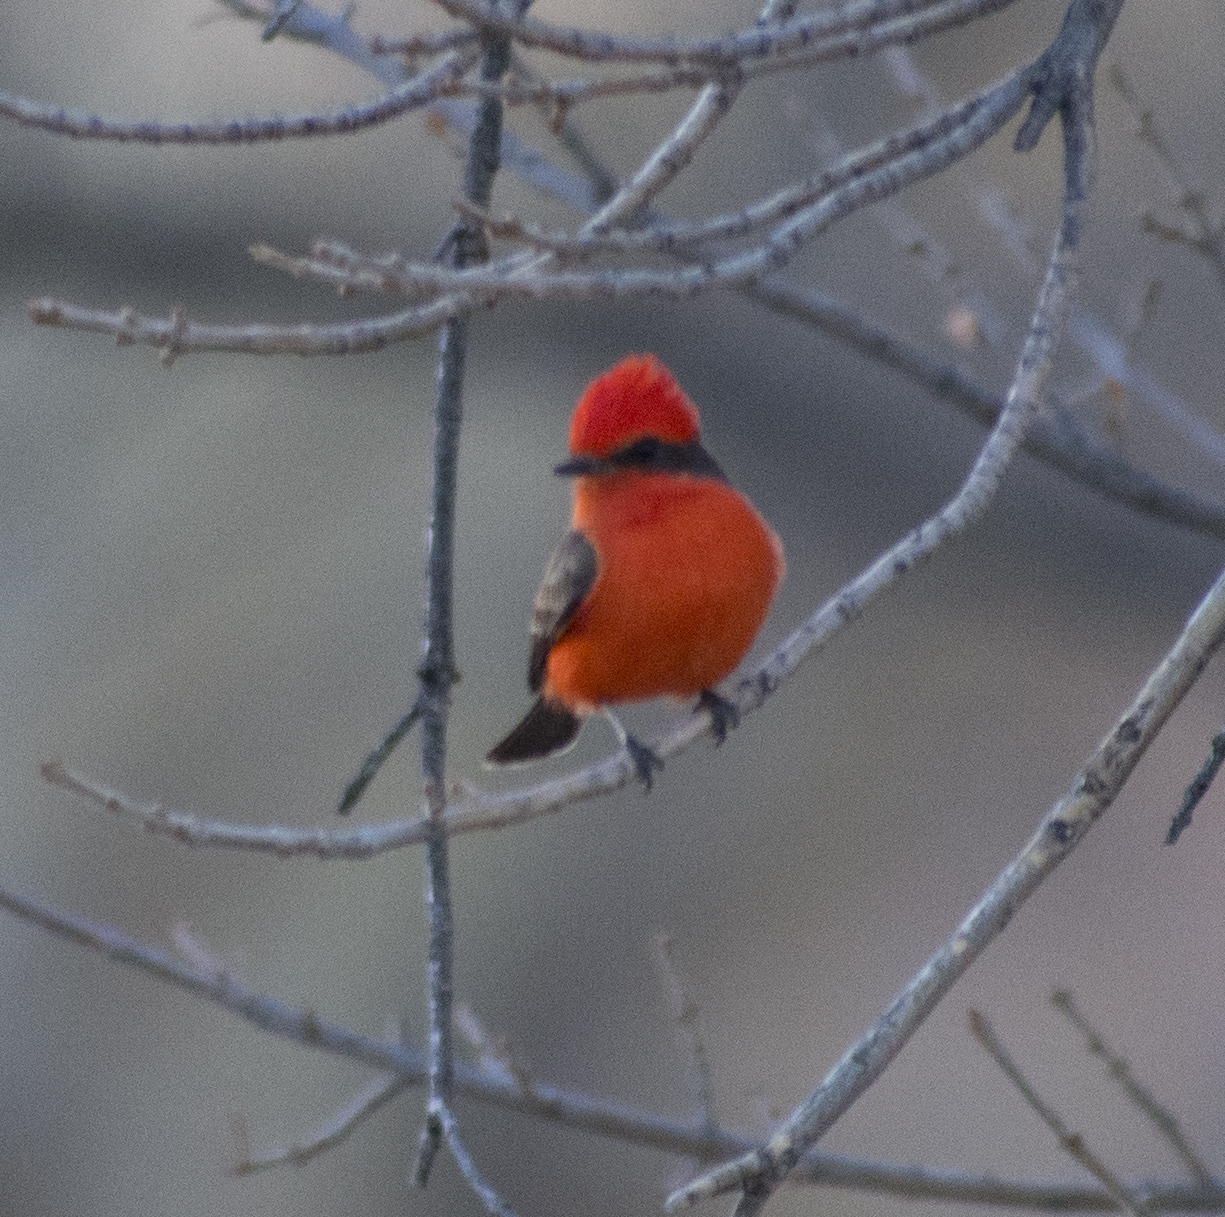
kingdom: Animalia
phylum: Chordata
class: Aves
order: Passeriformes
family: Tyrannidae
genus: Pyrocephalus
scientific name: Pyrocephalus rubinus
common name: Vermilion flycatcher
